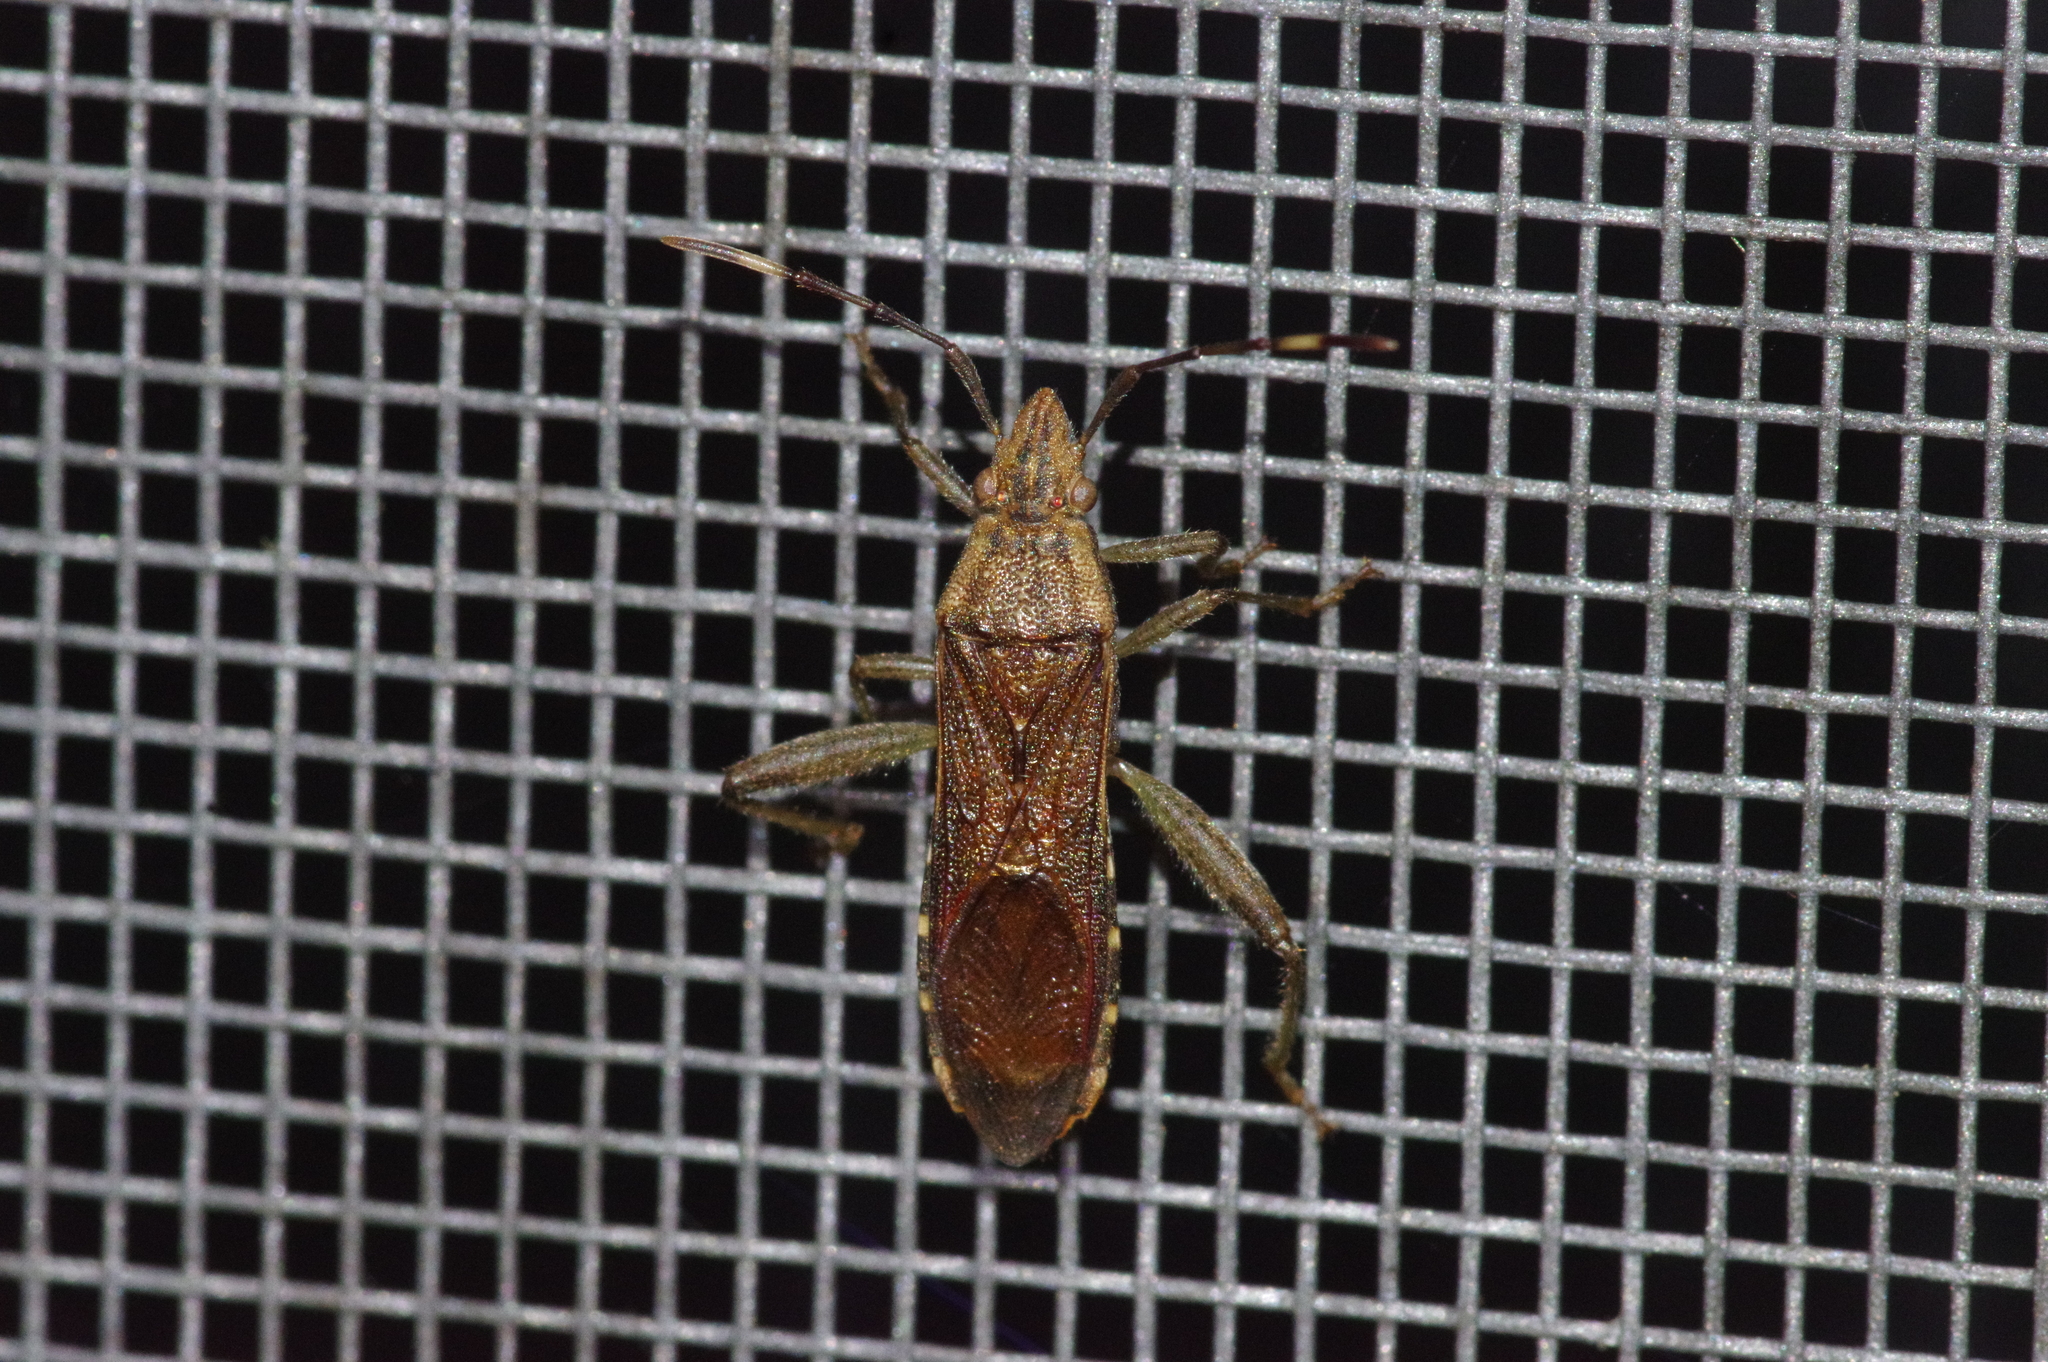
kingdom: Animalia
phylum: Arthropoda
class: Insecta
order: Hemiptera
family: Alydidae
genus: Daclera
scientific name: Daclera levana
